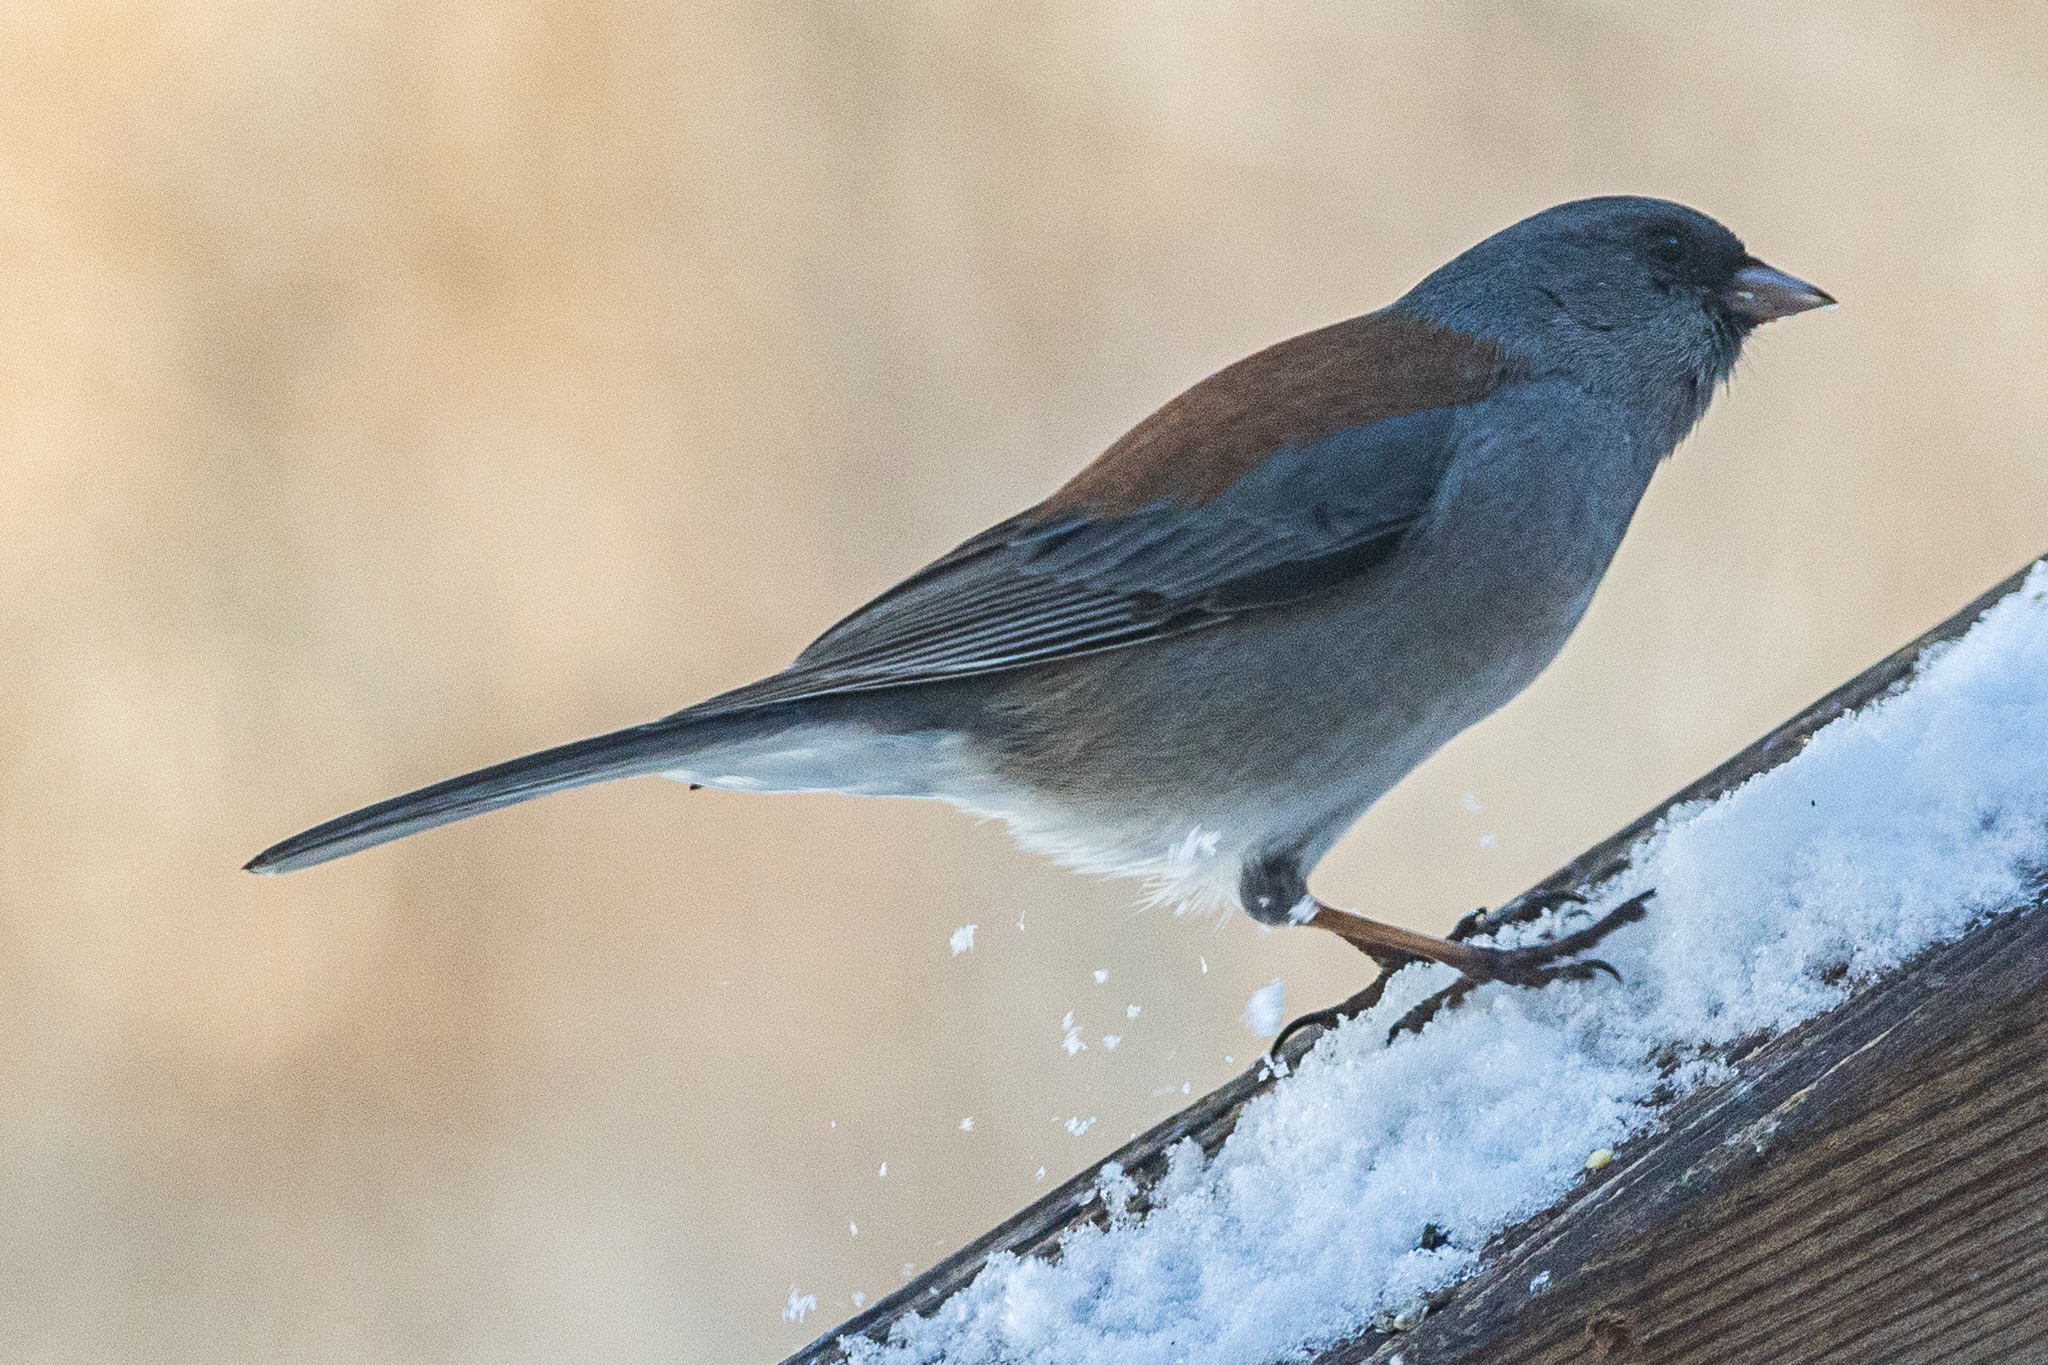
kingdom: Animalia
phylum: Chordata
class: Aves
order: Passeriformes
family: Passerellidae
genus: Junco
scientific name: Junco hyemalis
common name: Dark-eyed junco
